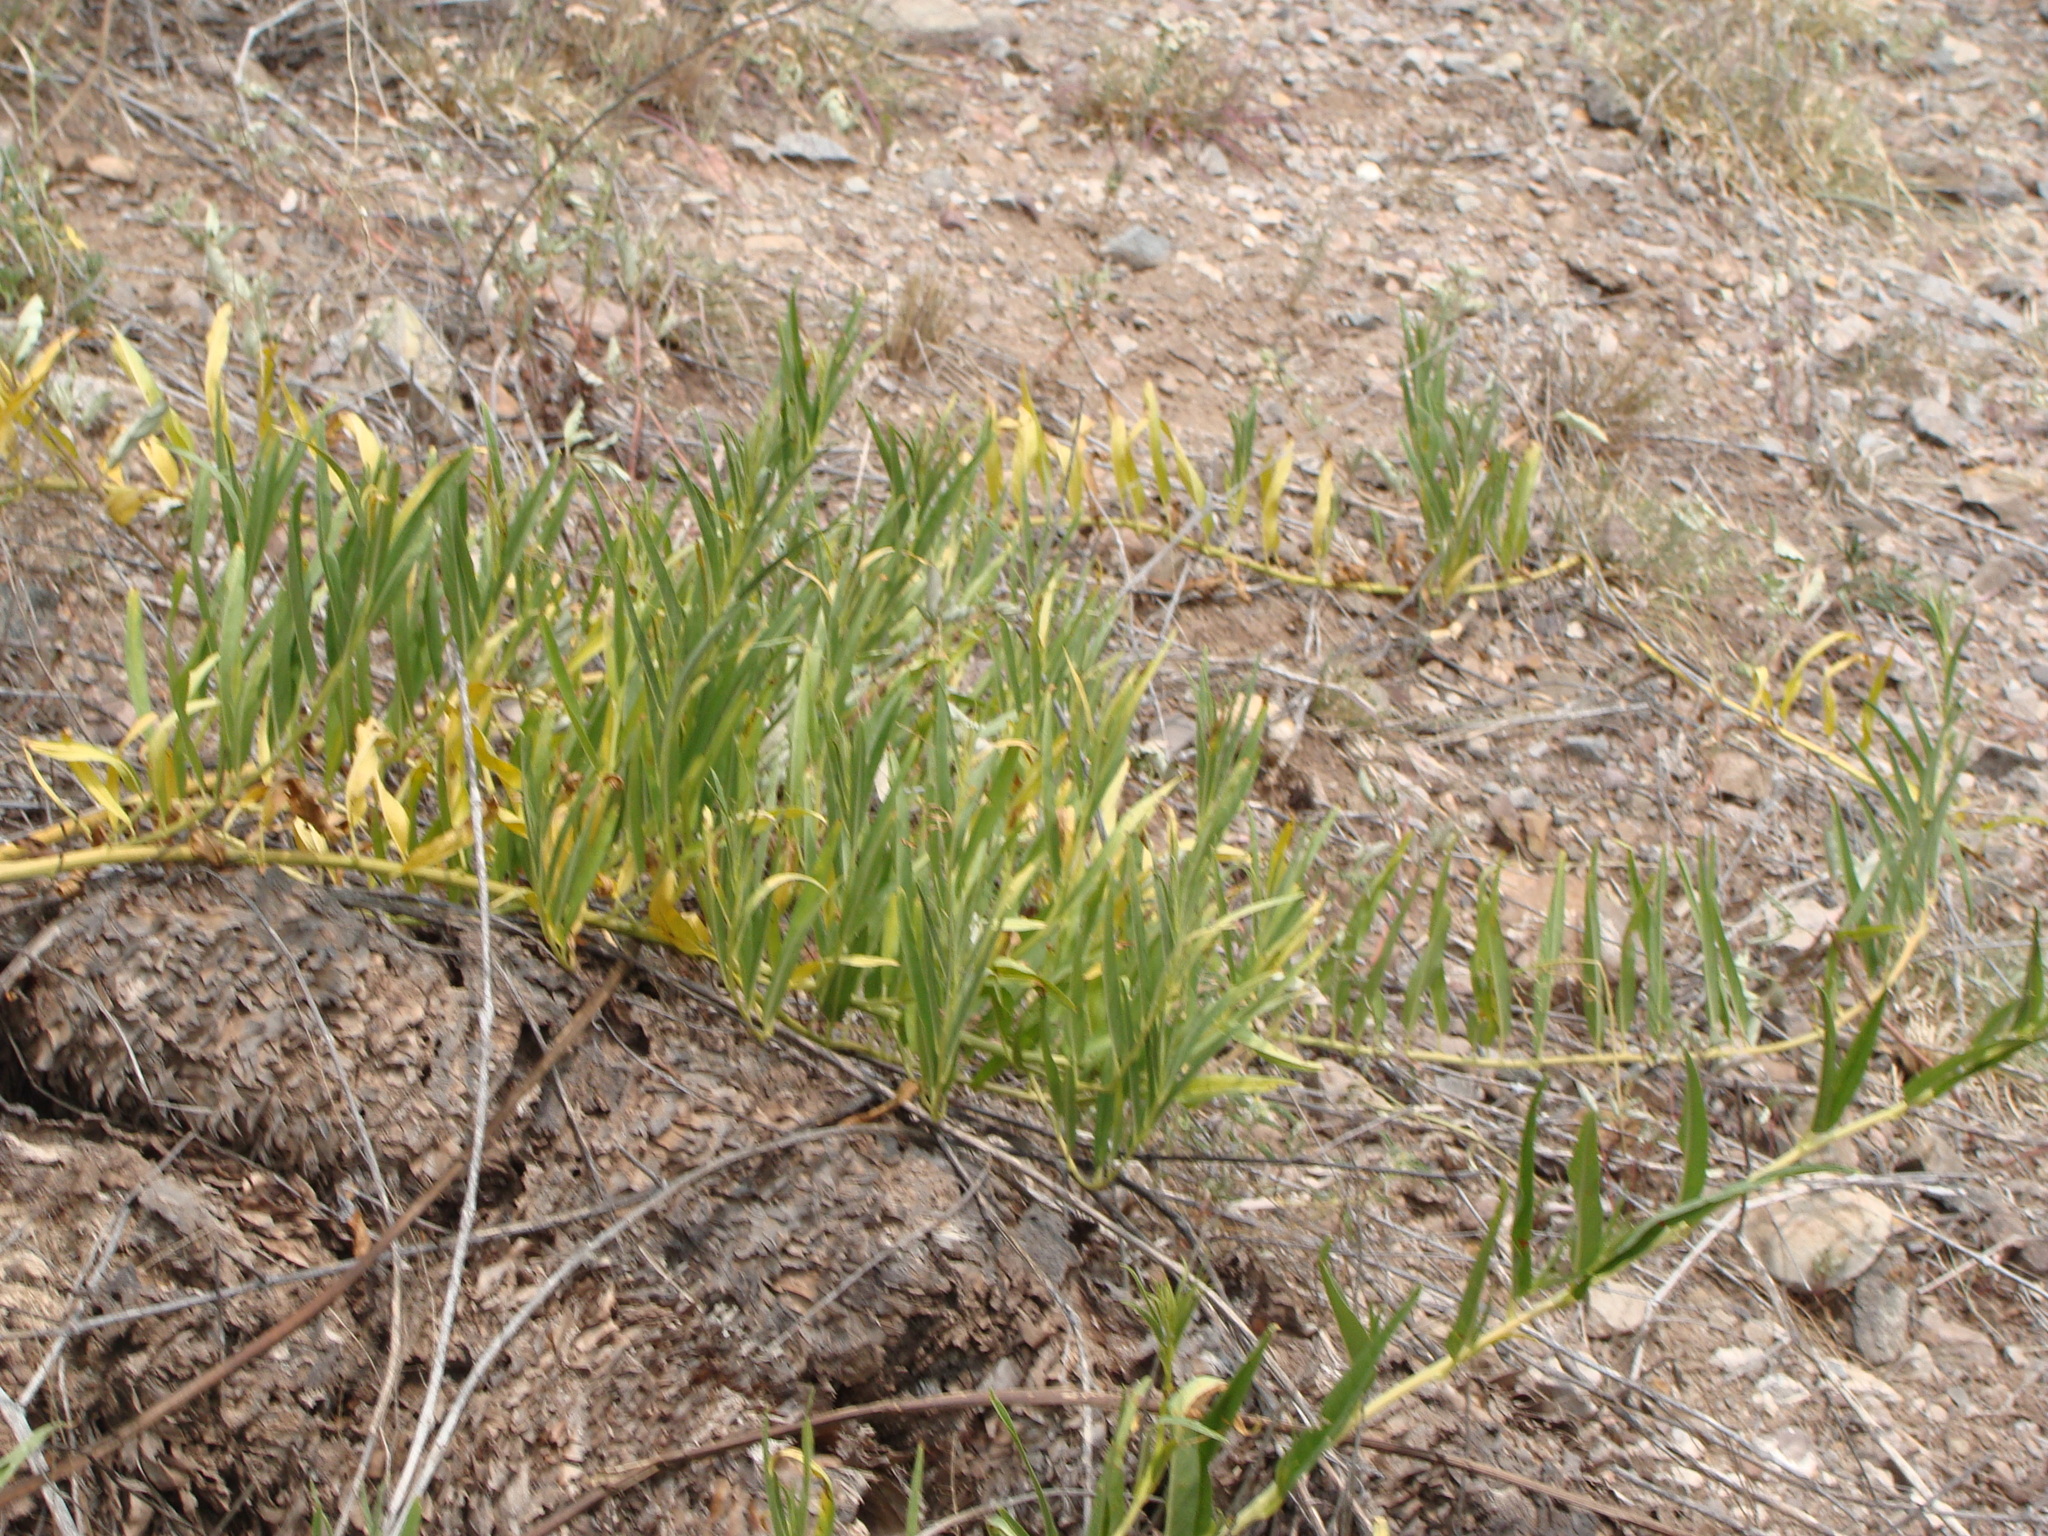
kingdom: Plantae
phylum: Tracheophyta
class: Magnoliopsida
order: Solanales
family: Convolvulaceae
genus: Ipomoea
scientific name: Ipomoea longifolia
